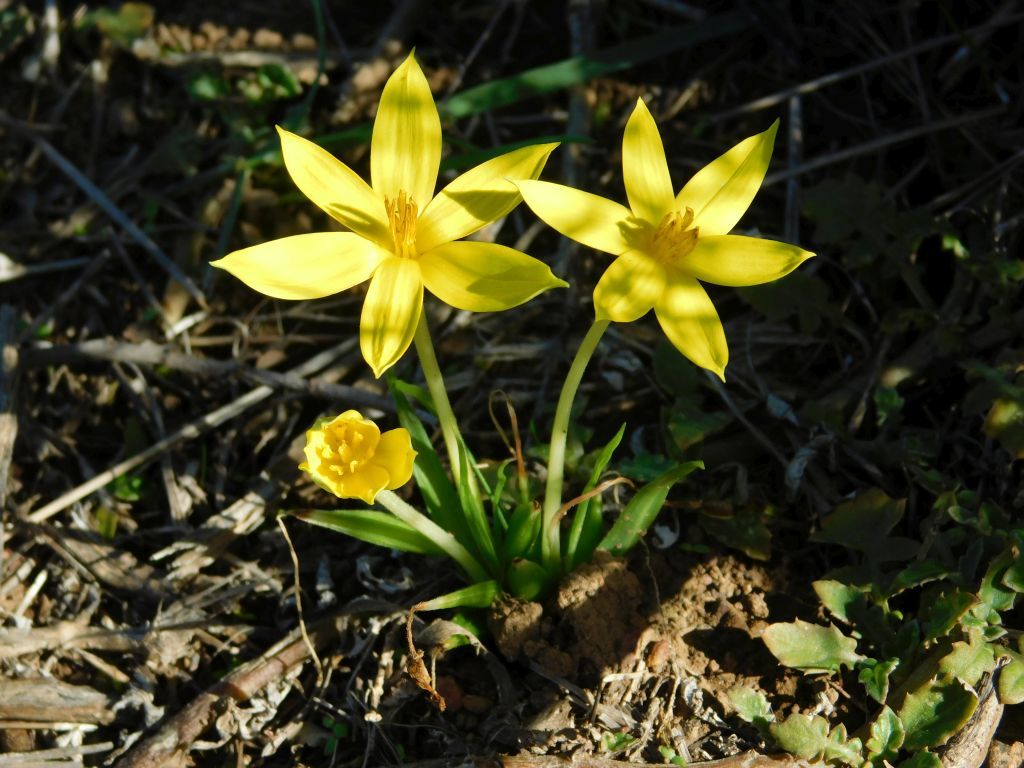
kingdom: Plantae
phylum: Tracheophyta
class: Liliopsida
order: Asparagales
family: Hypoxidaceae
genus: Empodium
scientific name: Empodium plicatum
